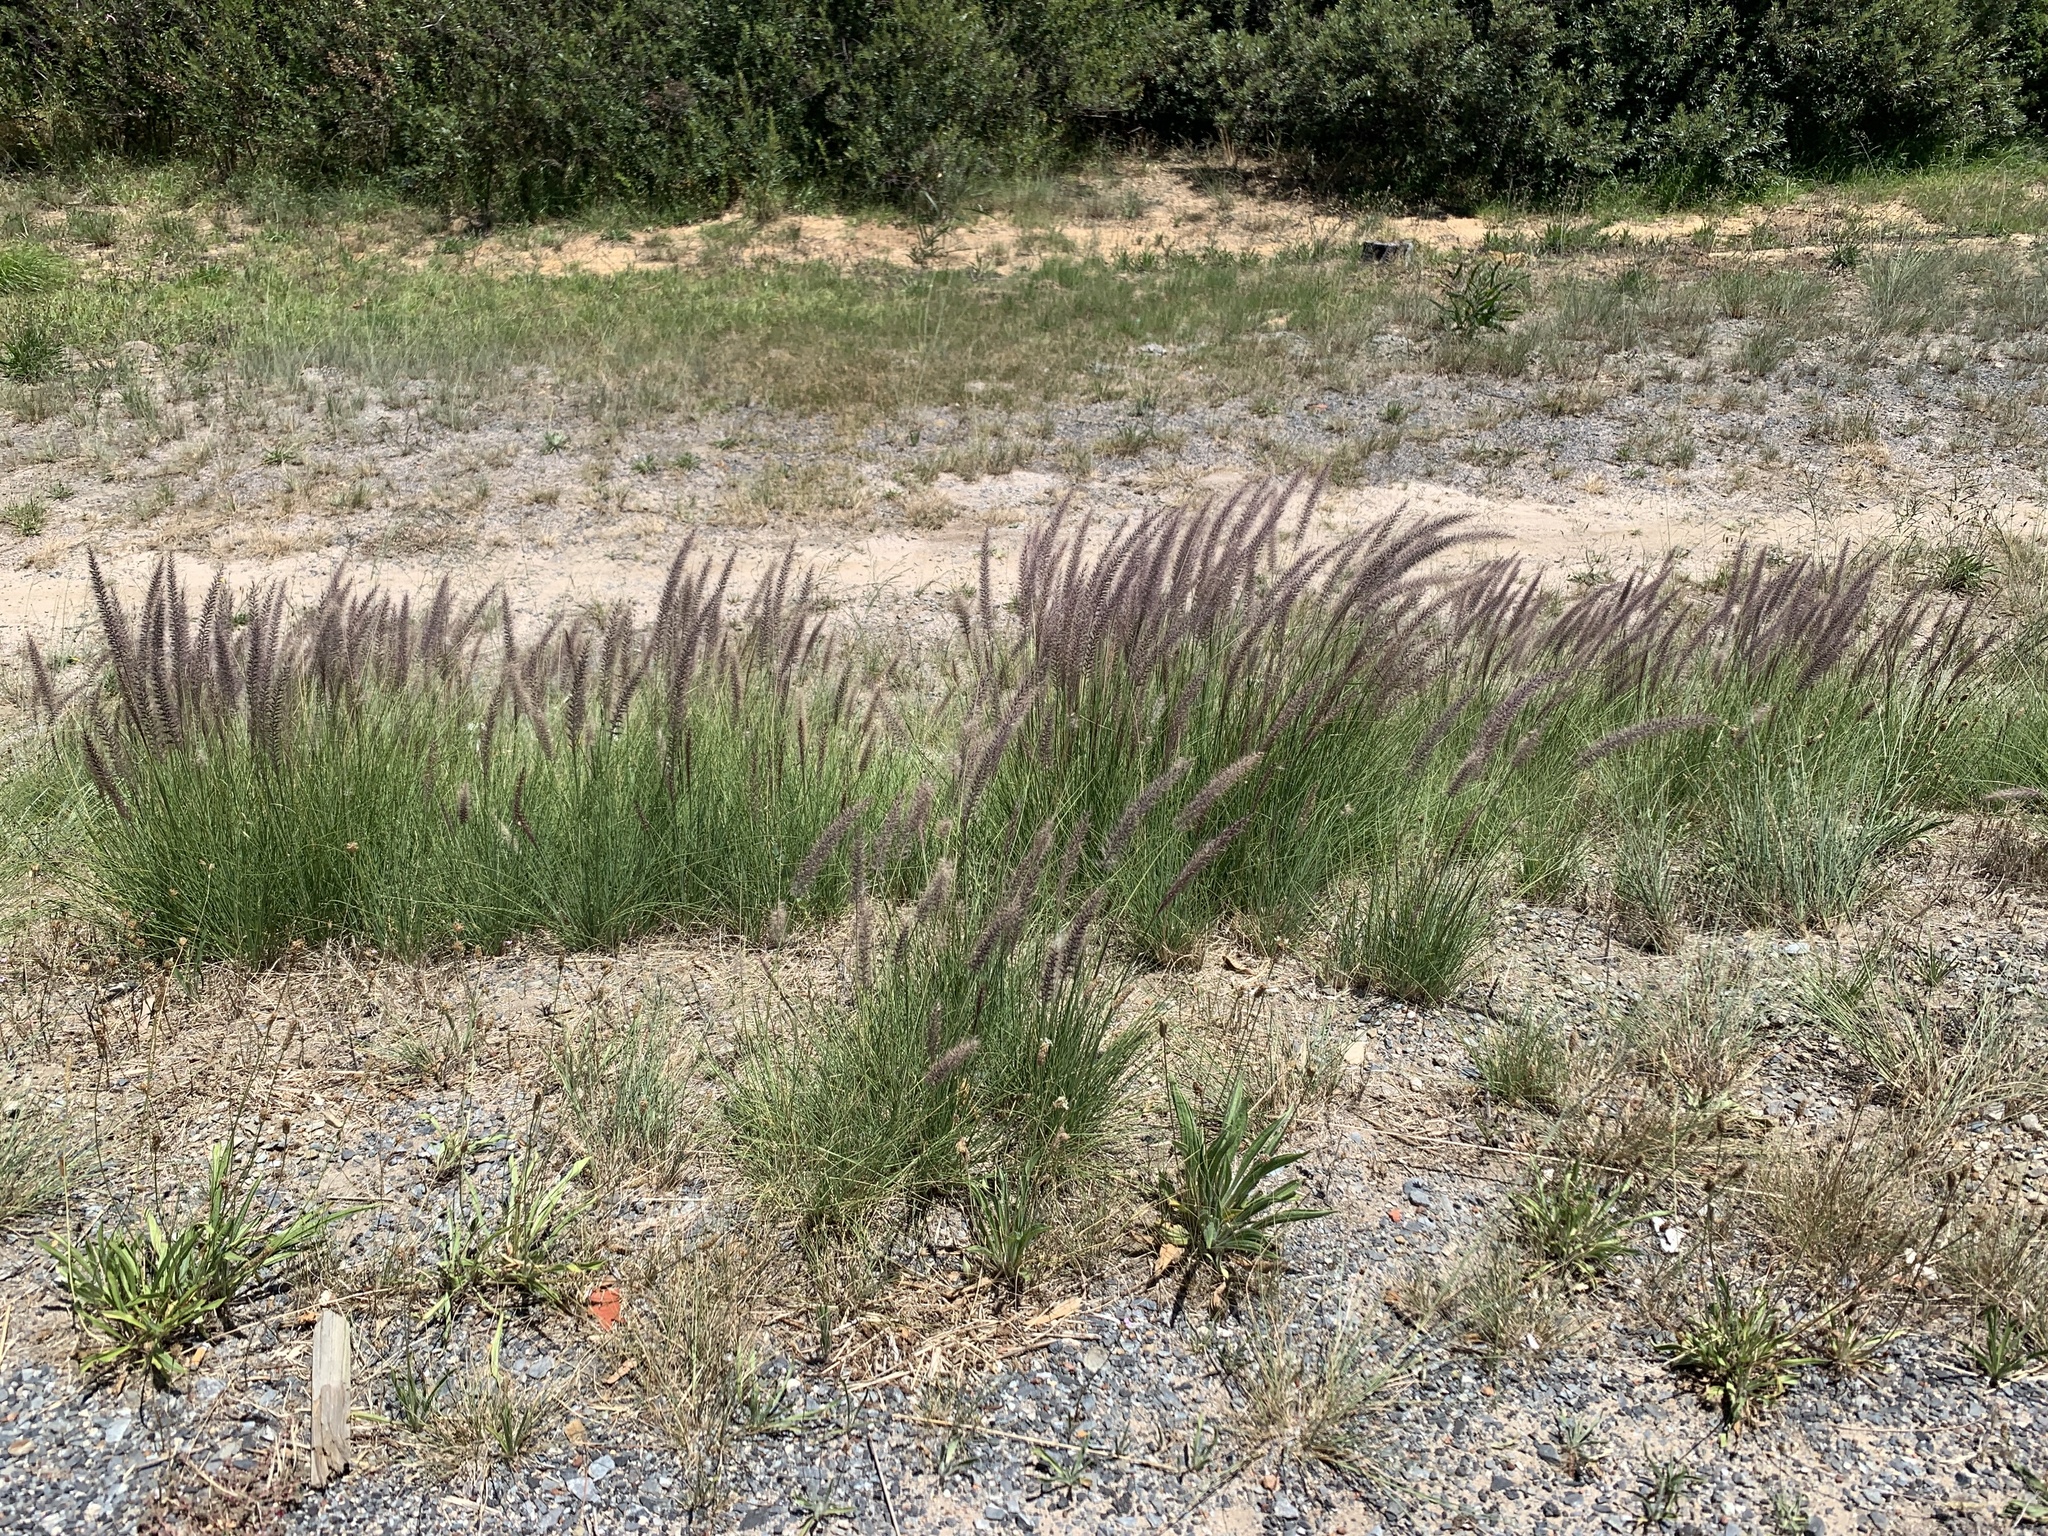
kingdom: Plantae
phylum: Tracheophyta
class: Liliopsida
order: Poales
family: Poaceae
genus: Cenchrus
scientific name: Cenchrus setaceus
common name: Crimson fountaingrass
